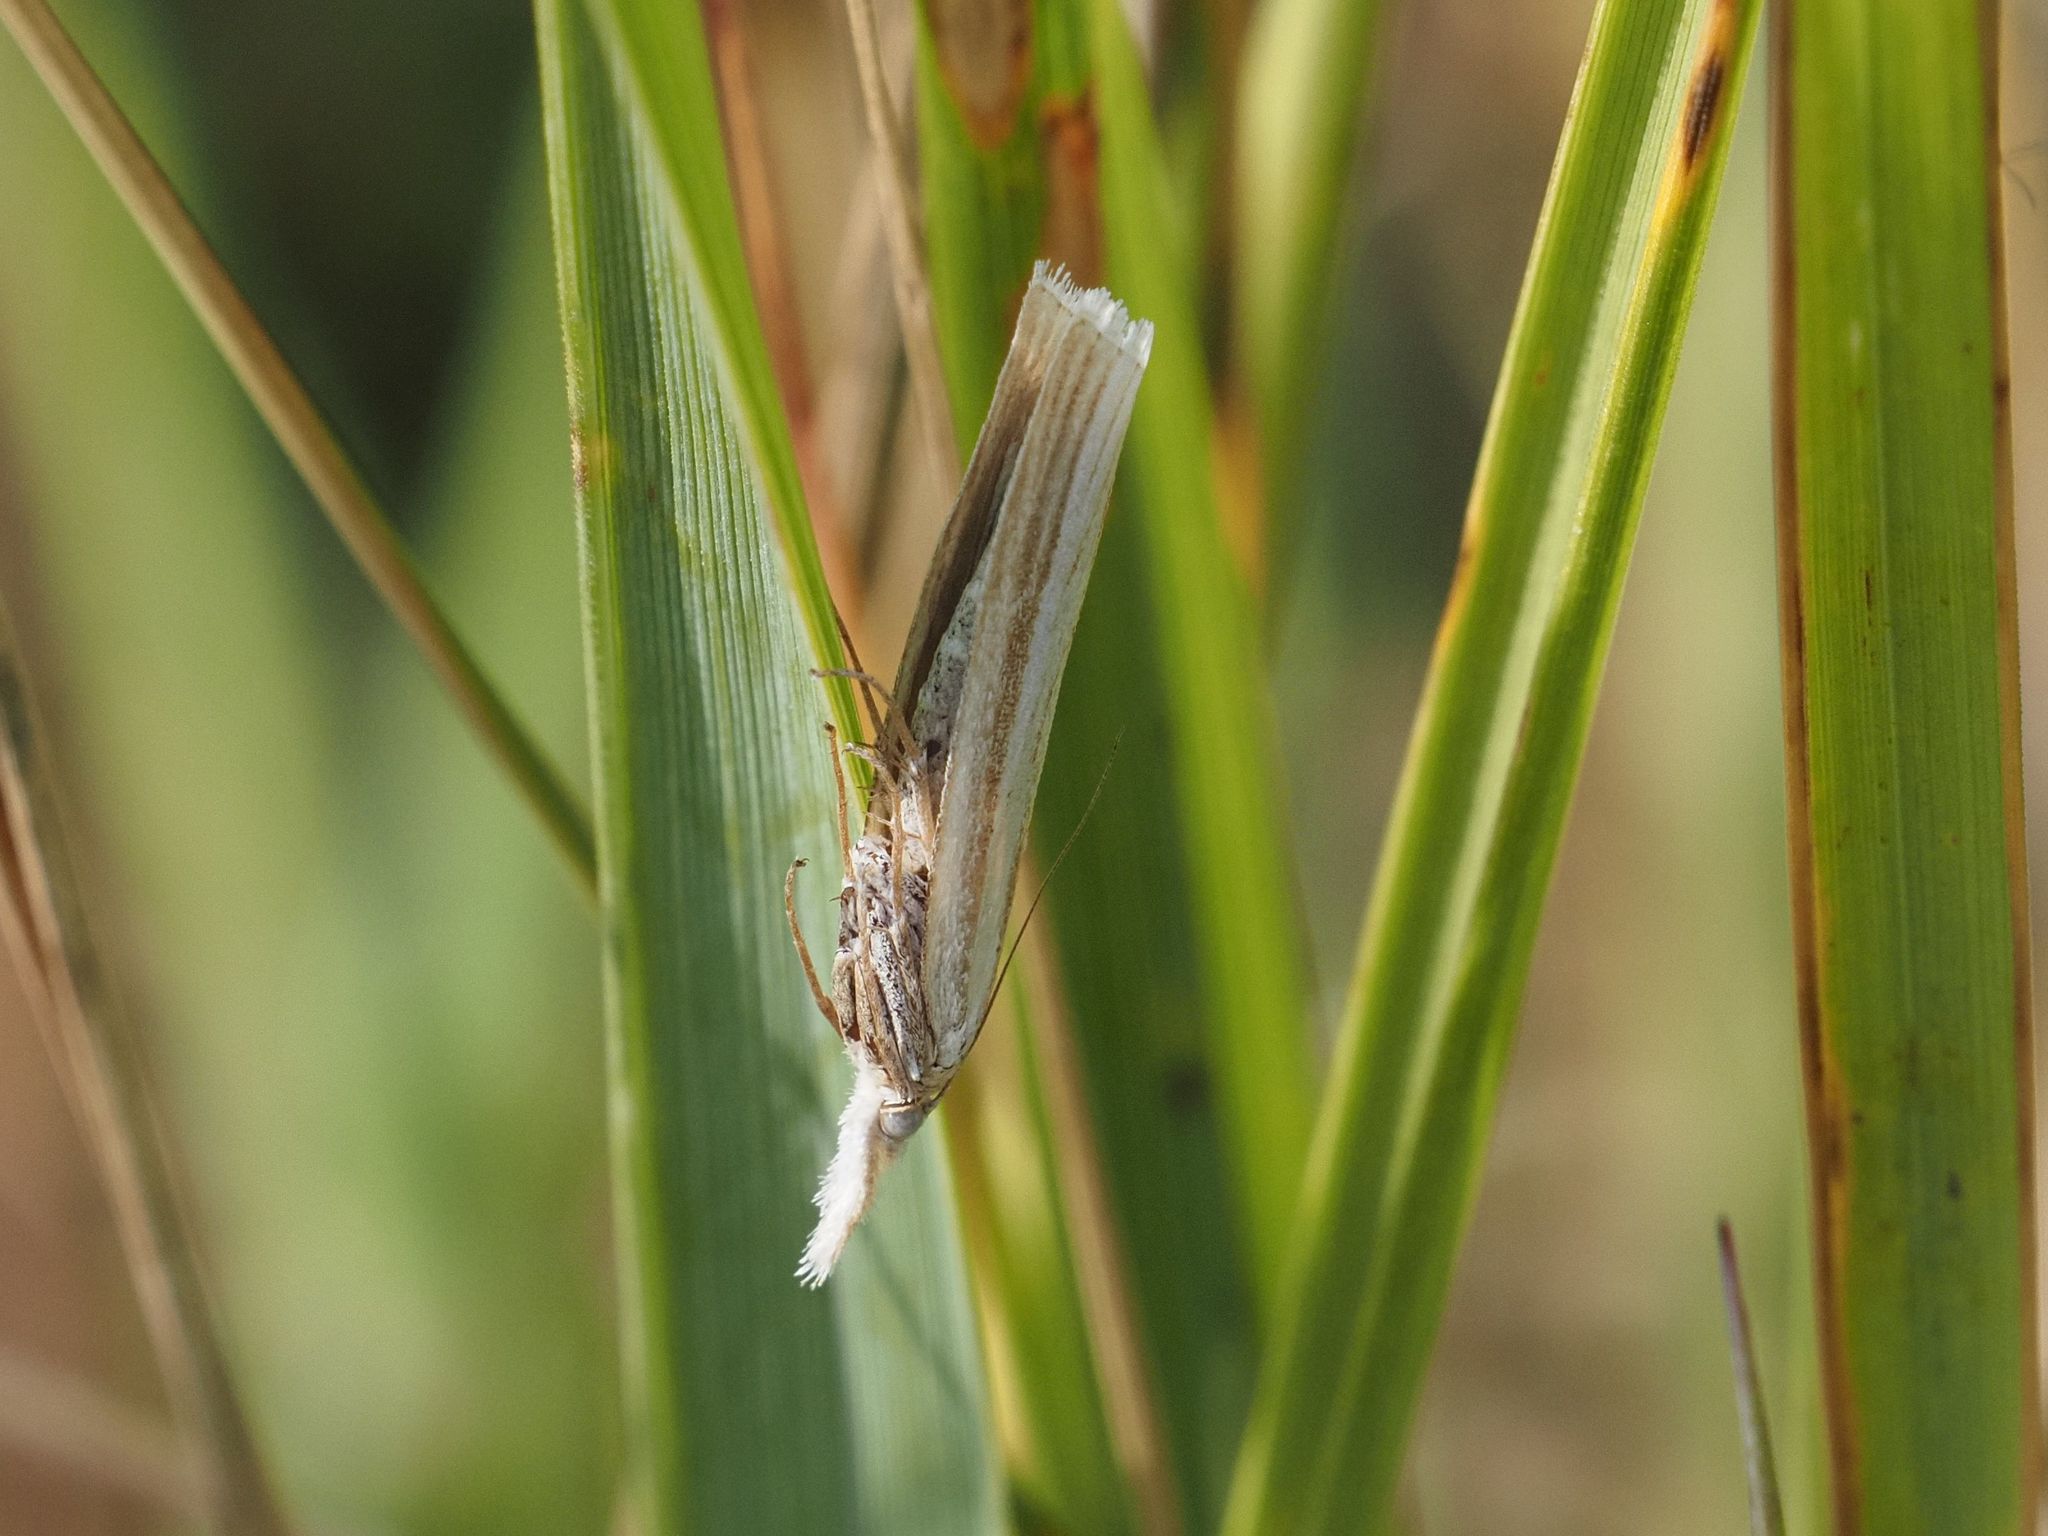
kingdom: Animalia
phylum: Arthropoda
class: Insecta
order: Lepidoptera
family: Crambidae
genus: Agriphila
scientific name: Agriphila tristellus
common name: Common grass-veneer
